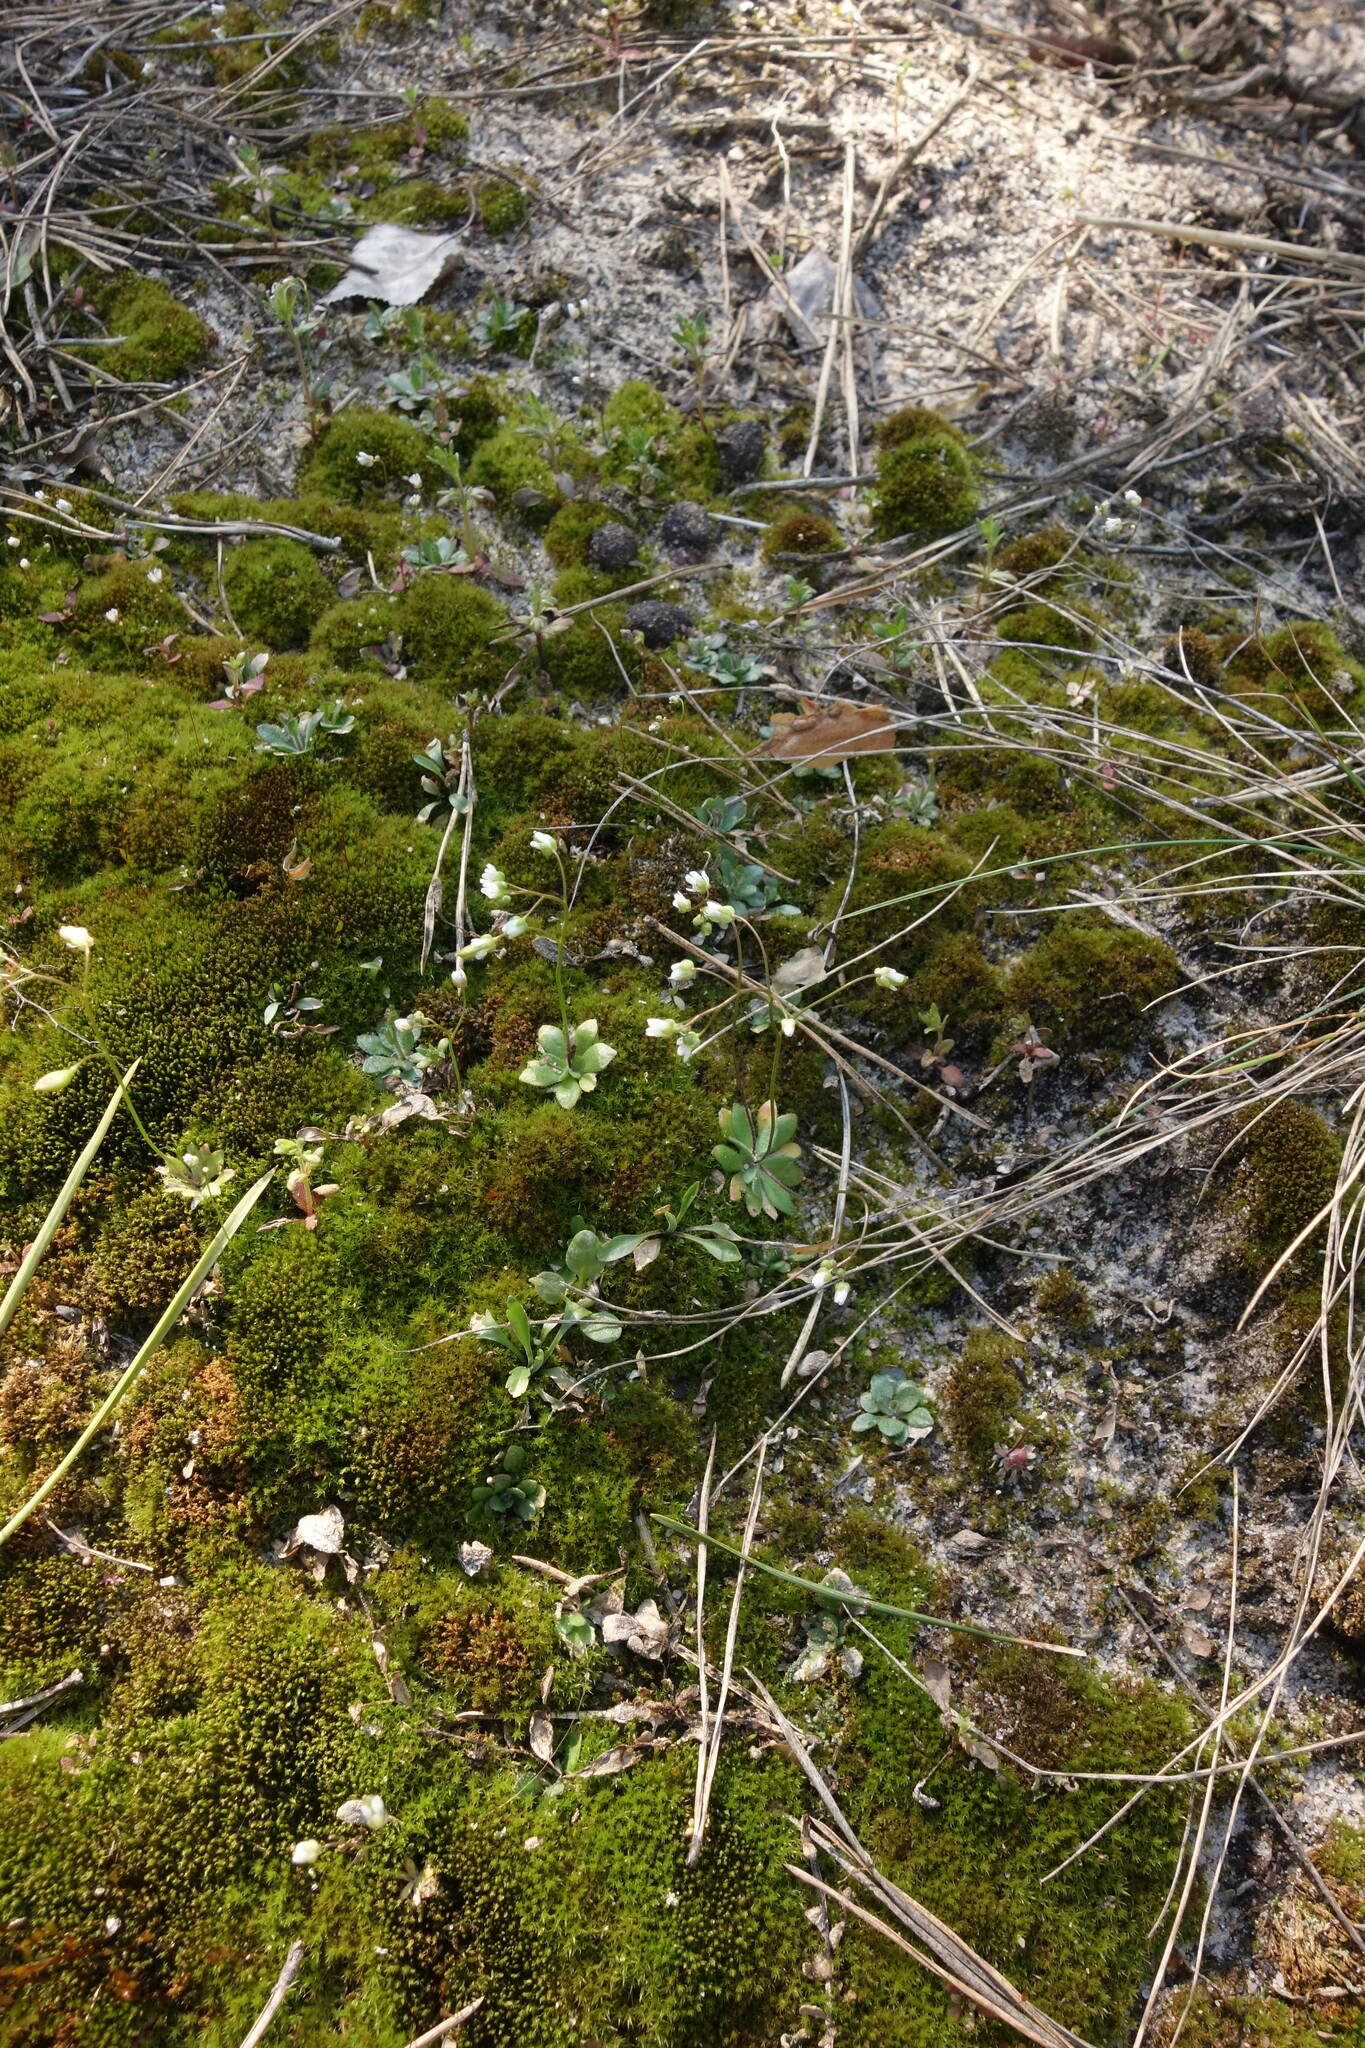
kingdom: Plantae
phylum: Tracheophyta
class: Magnoliopsida
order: Brassicales
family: Brassicaceae
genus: Draba
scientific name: Draba verna
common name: Spring draba
